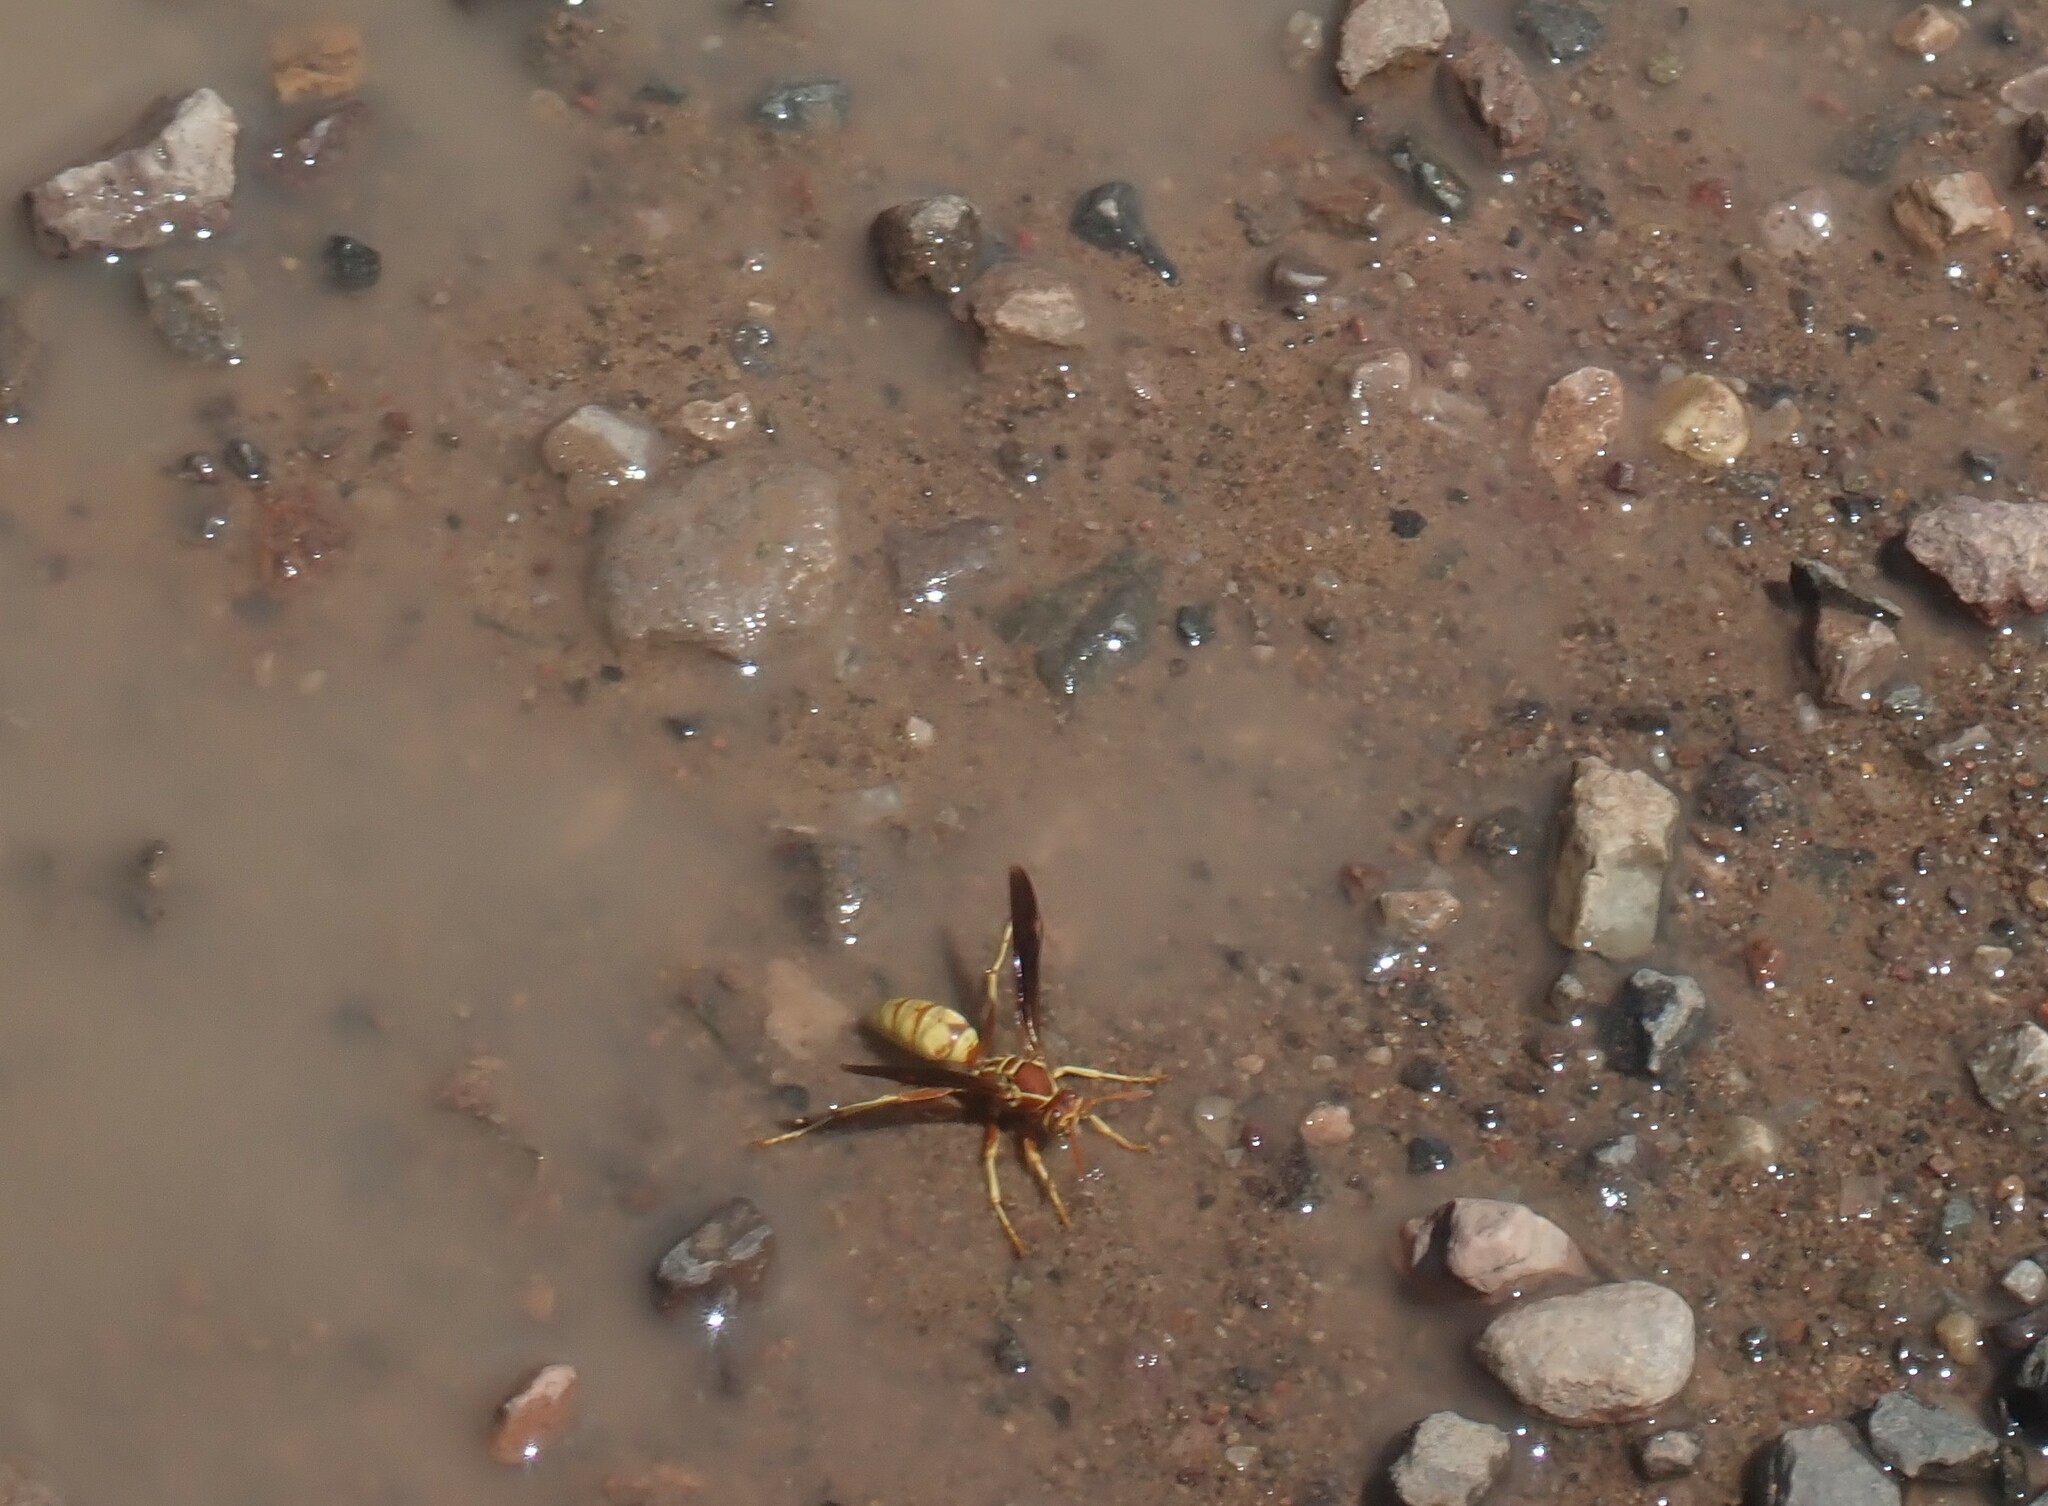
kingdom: Animalia
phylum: Arthropoda
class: Insecta
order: Hymenoptera
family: Eumenidae
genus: Polistes
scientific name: Polistes aurifer
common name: Paper wasp
